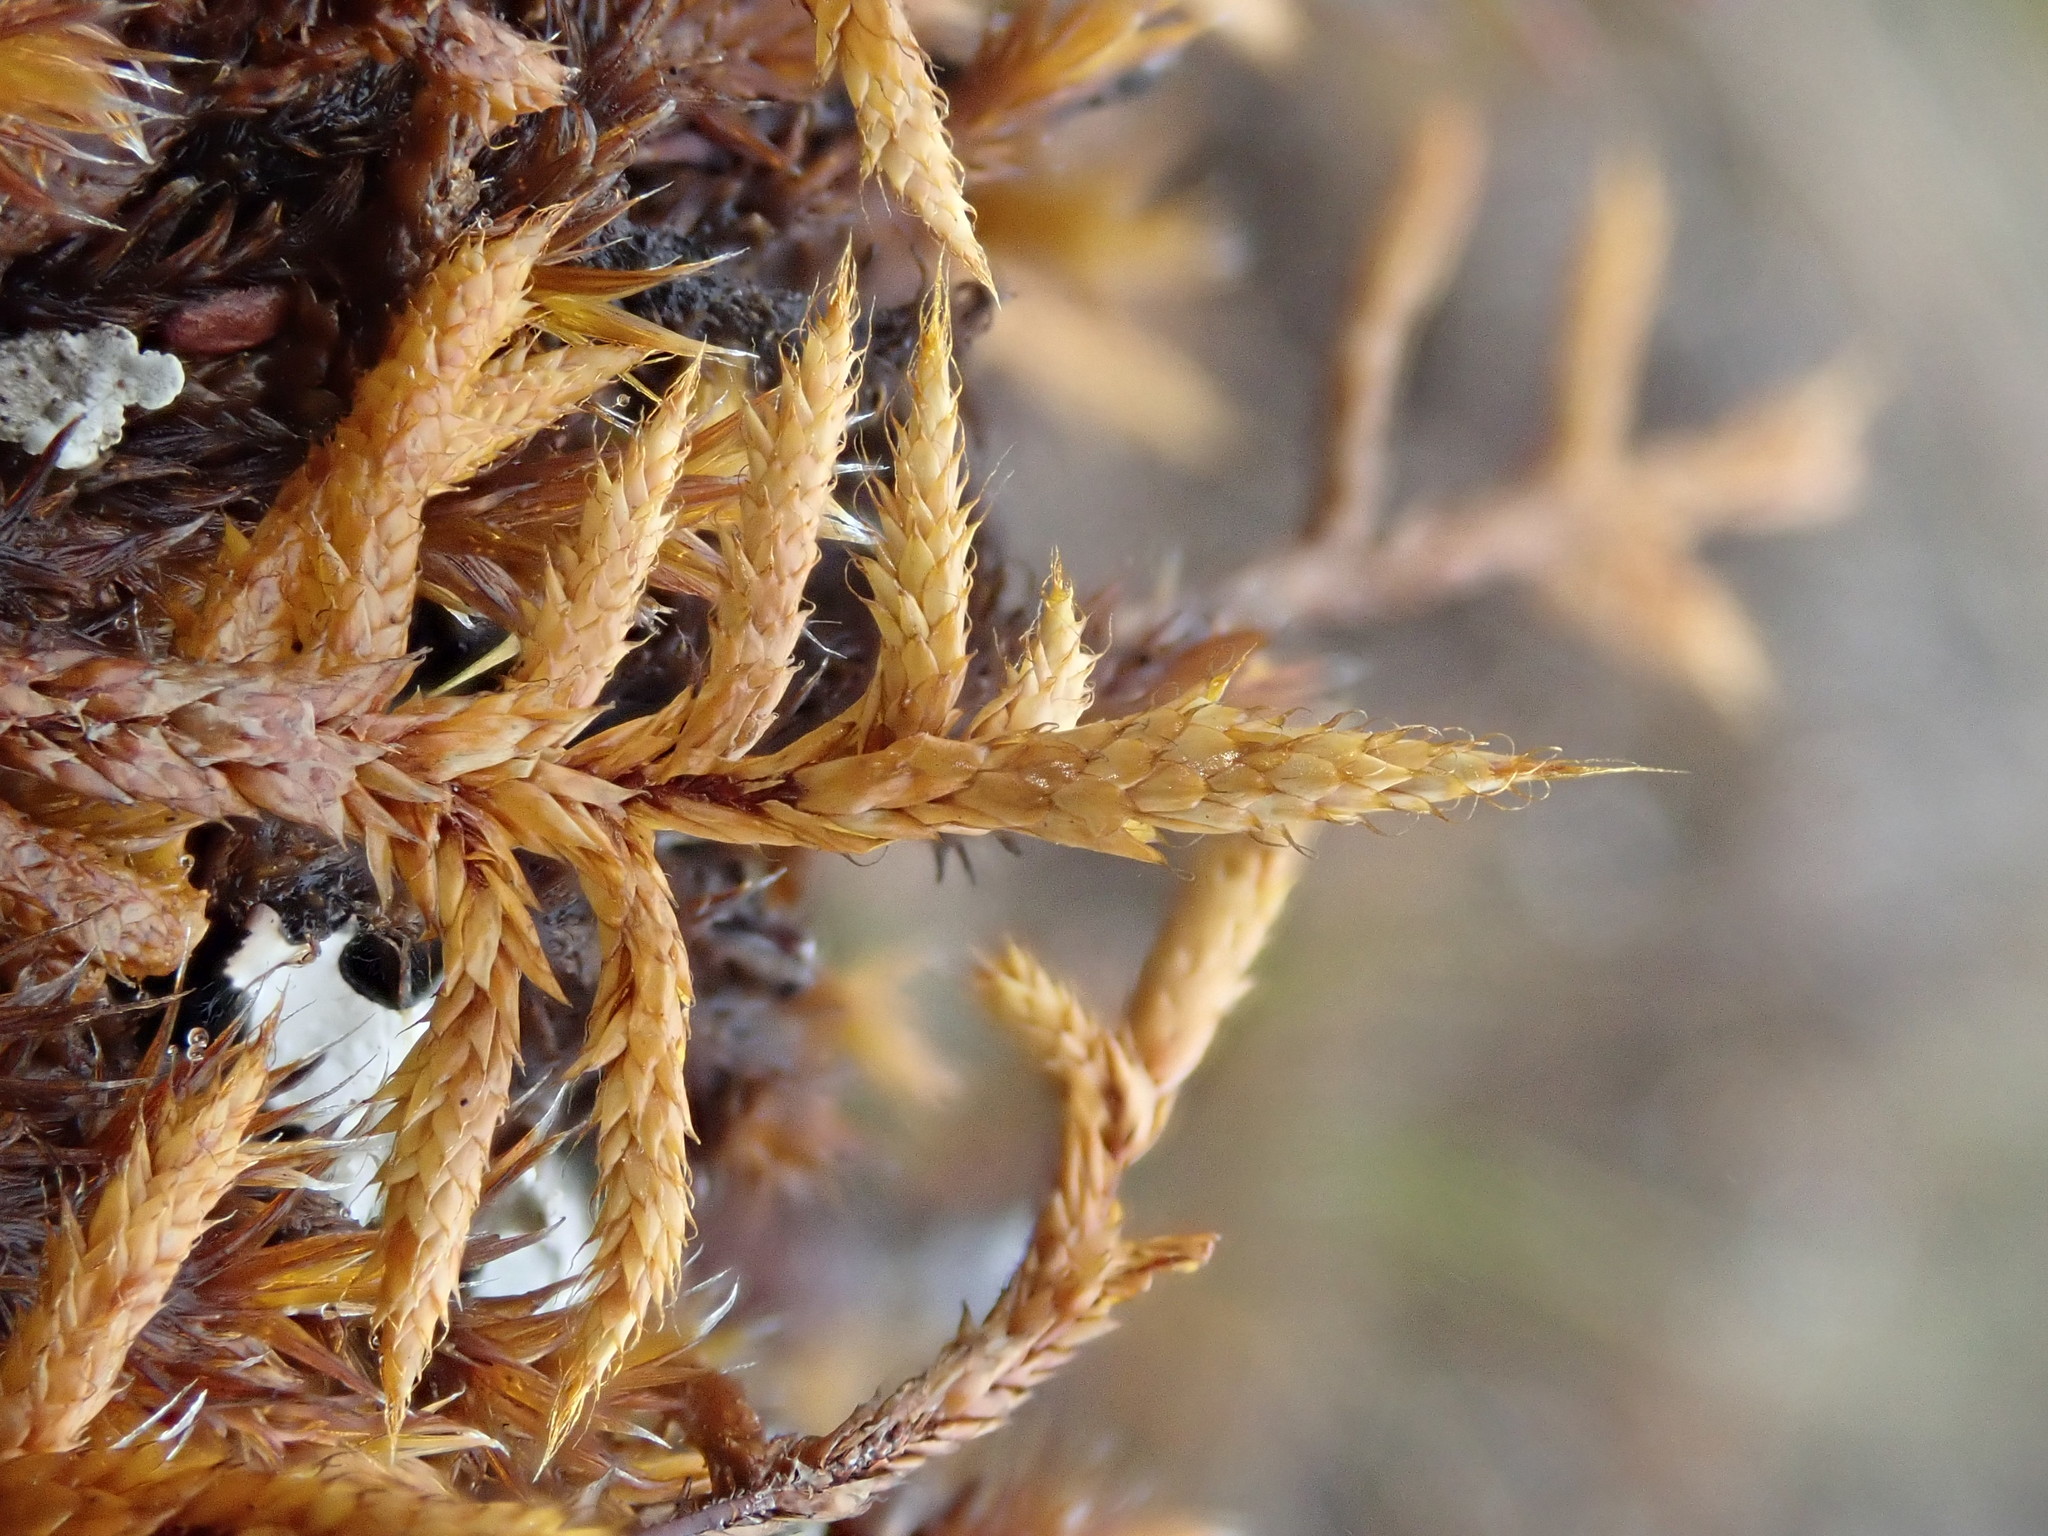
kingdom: Plantae
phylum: Bryophyta
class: Bryopsida
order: Hedwigiales
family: Hedwigiaceae
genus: Rhacocarpus
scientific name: Rhacocarpus purpurascens
